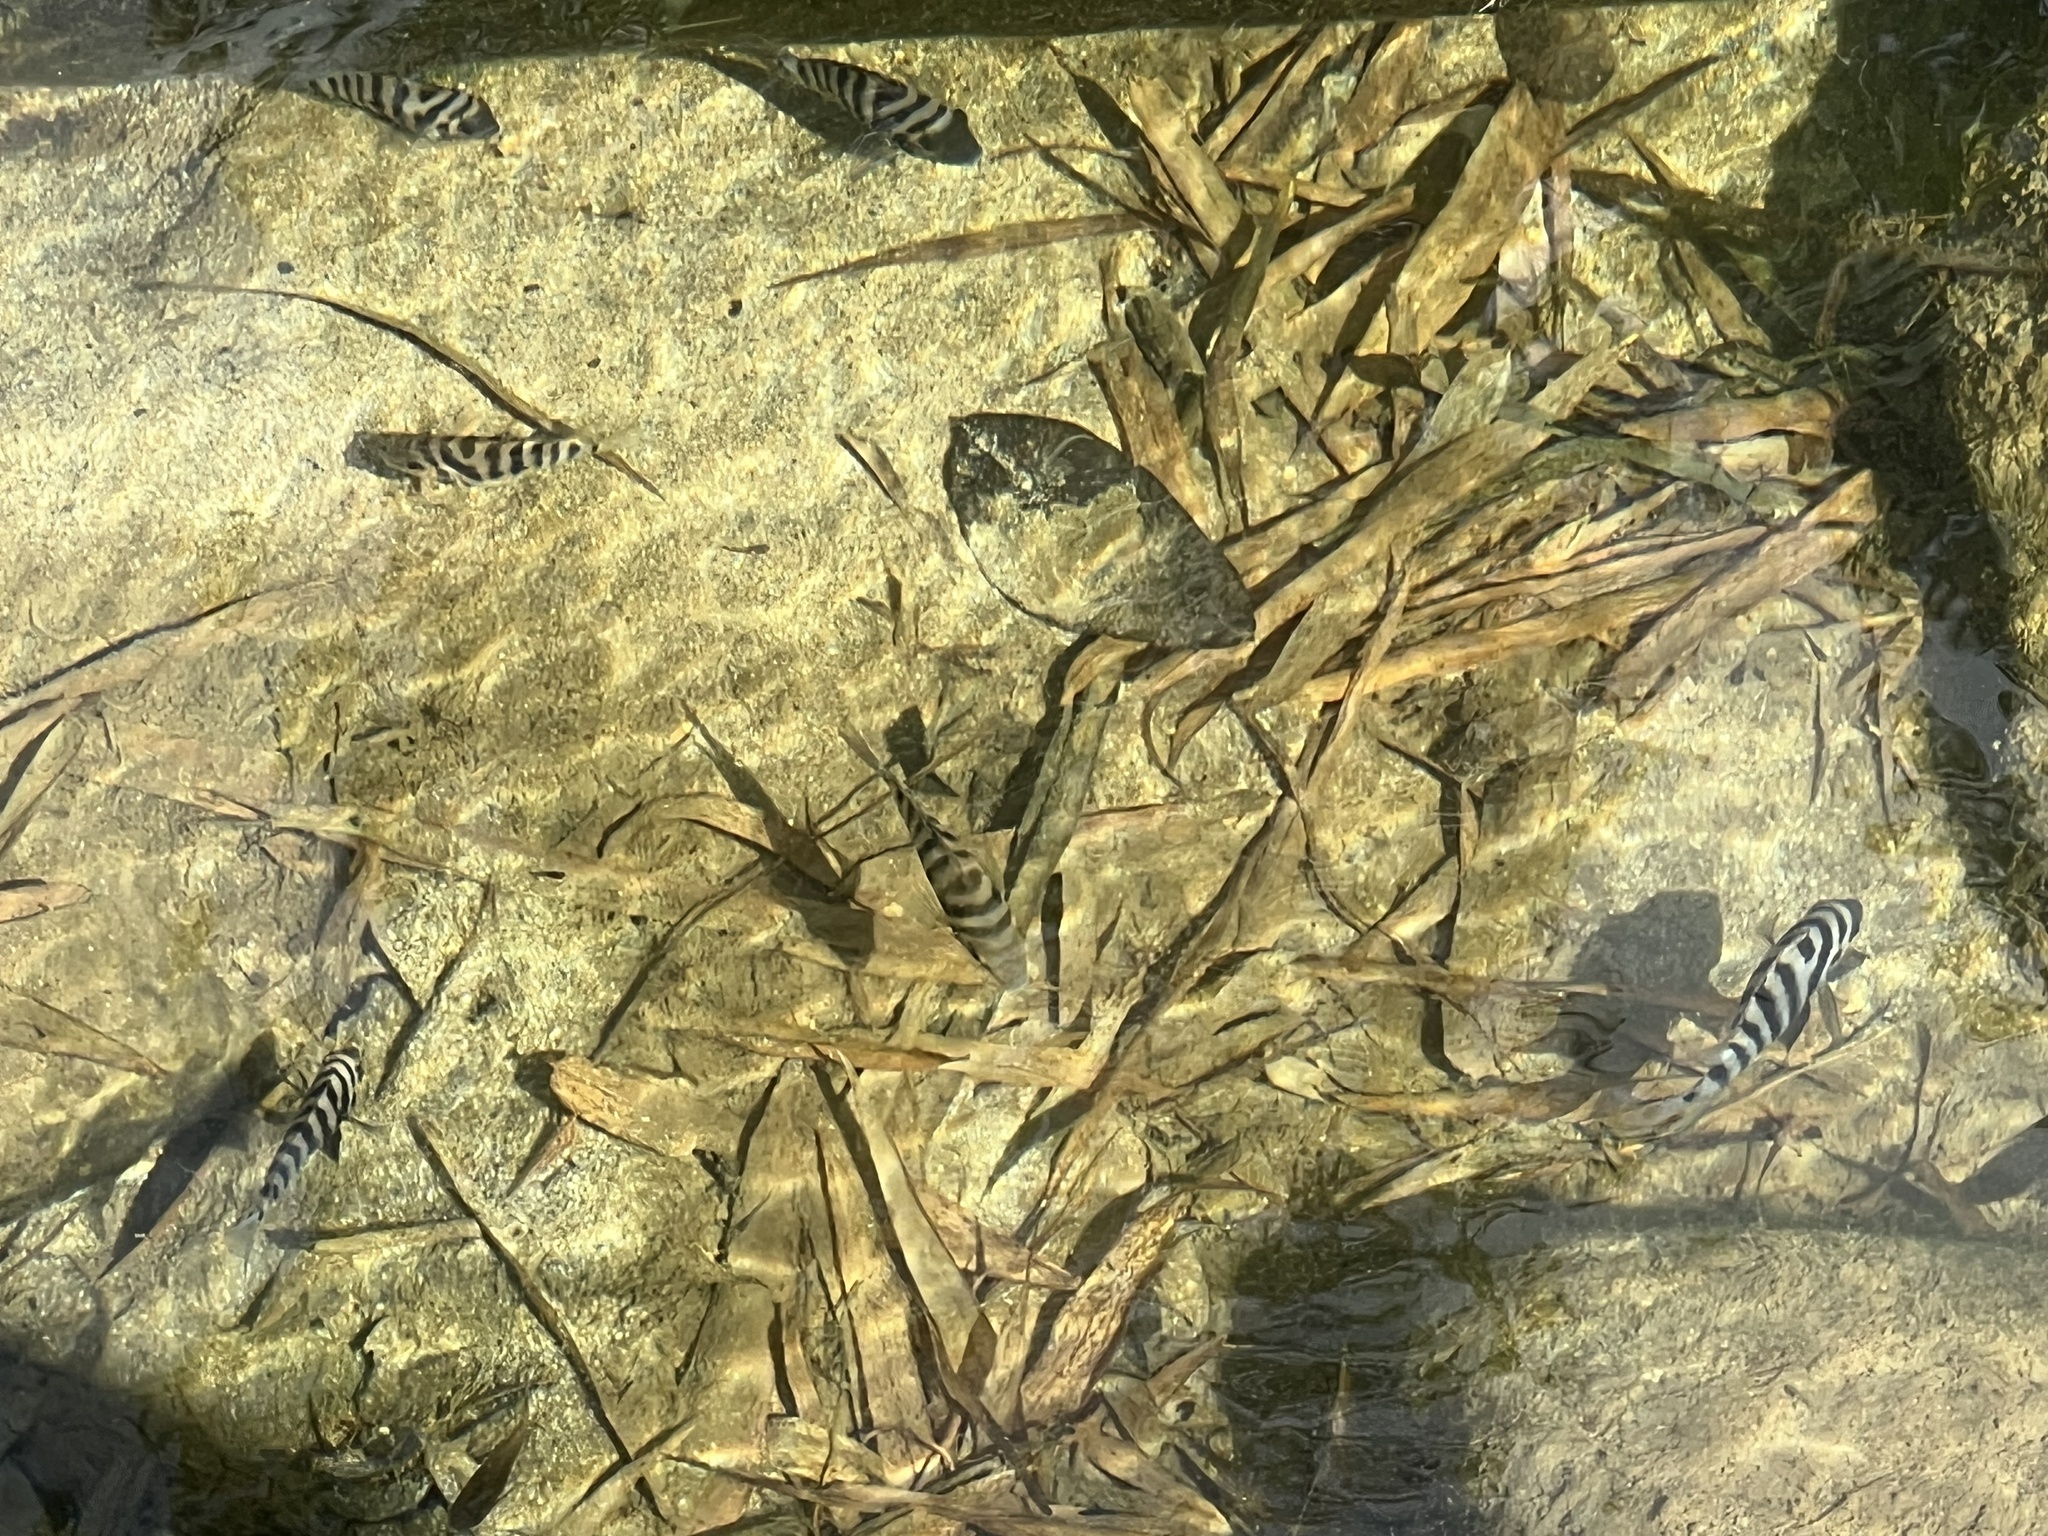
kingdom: Animalia
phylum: Chordata
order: Perciformes
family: Cichlidae
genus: Amatitlania
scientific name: Amatitlania nigrofasciata
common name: Convict cichlid
